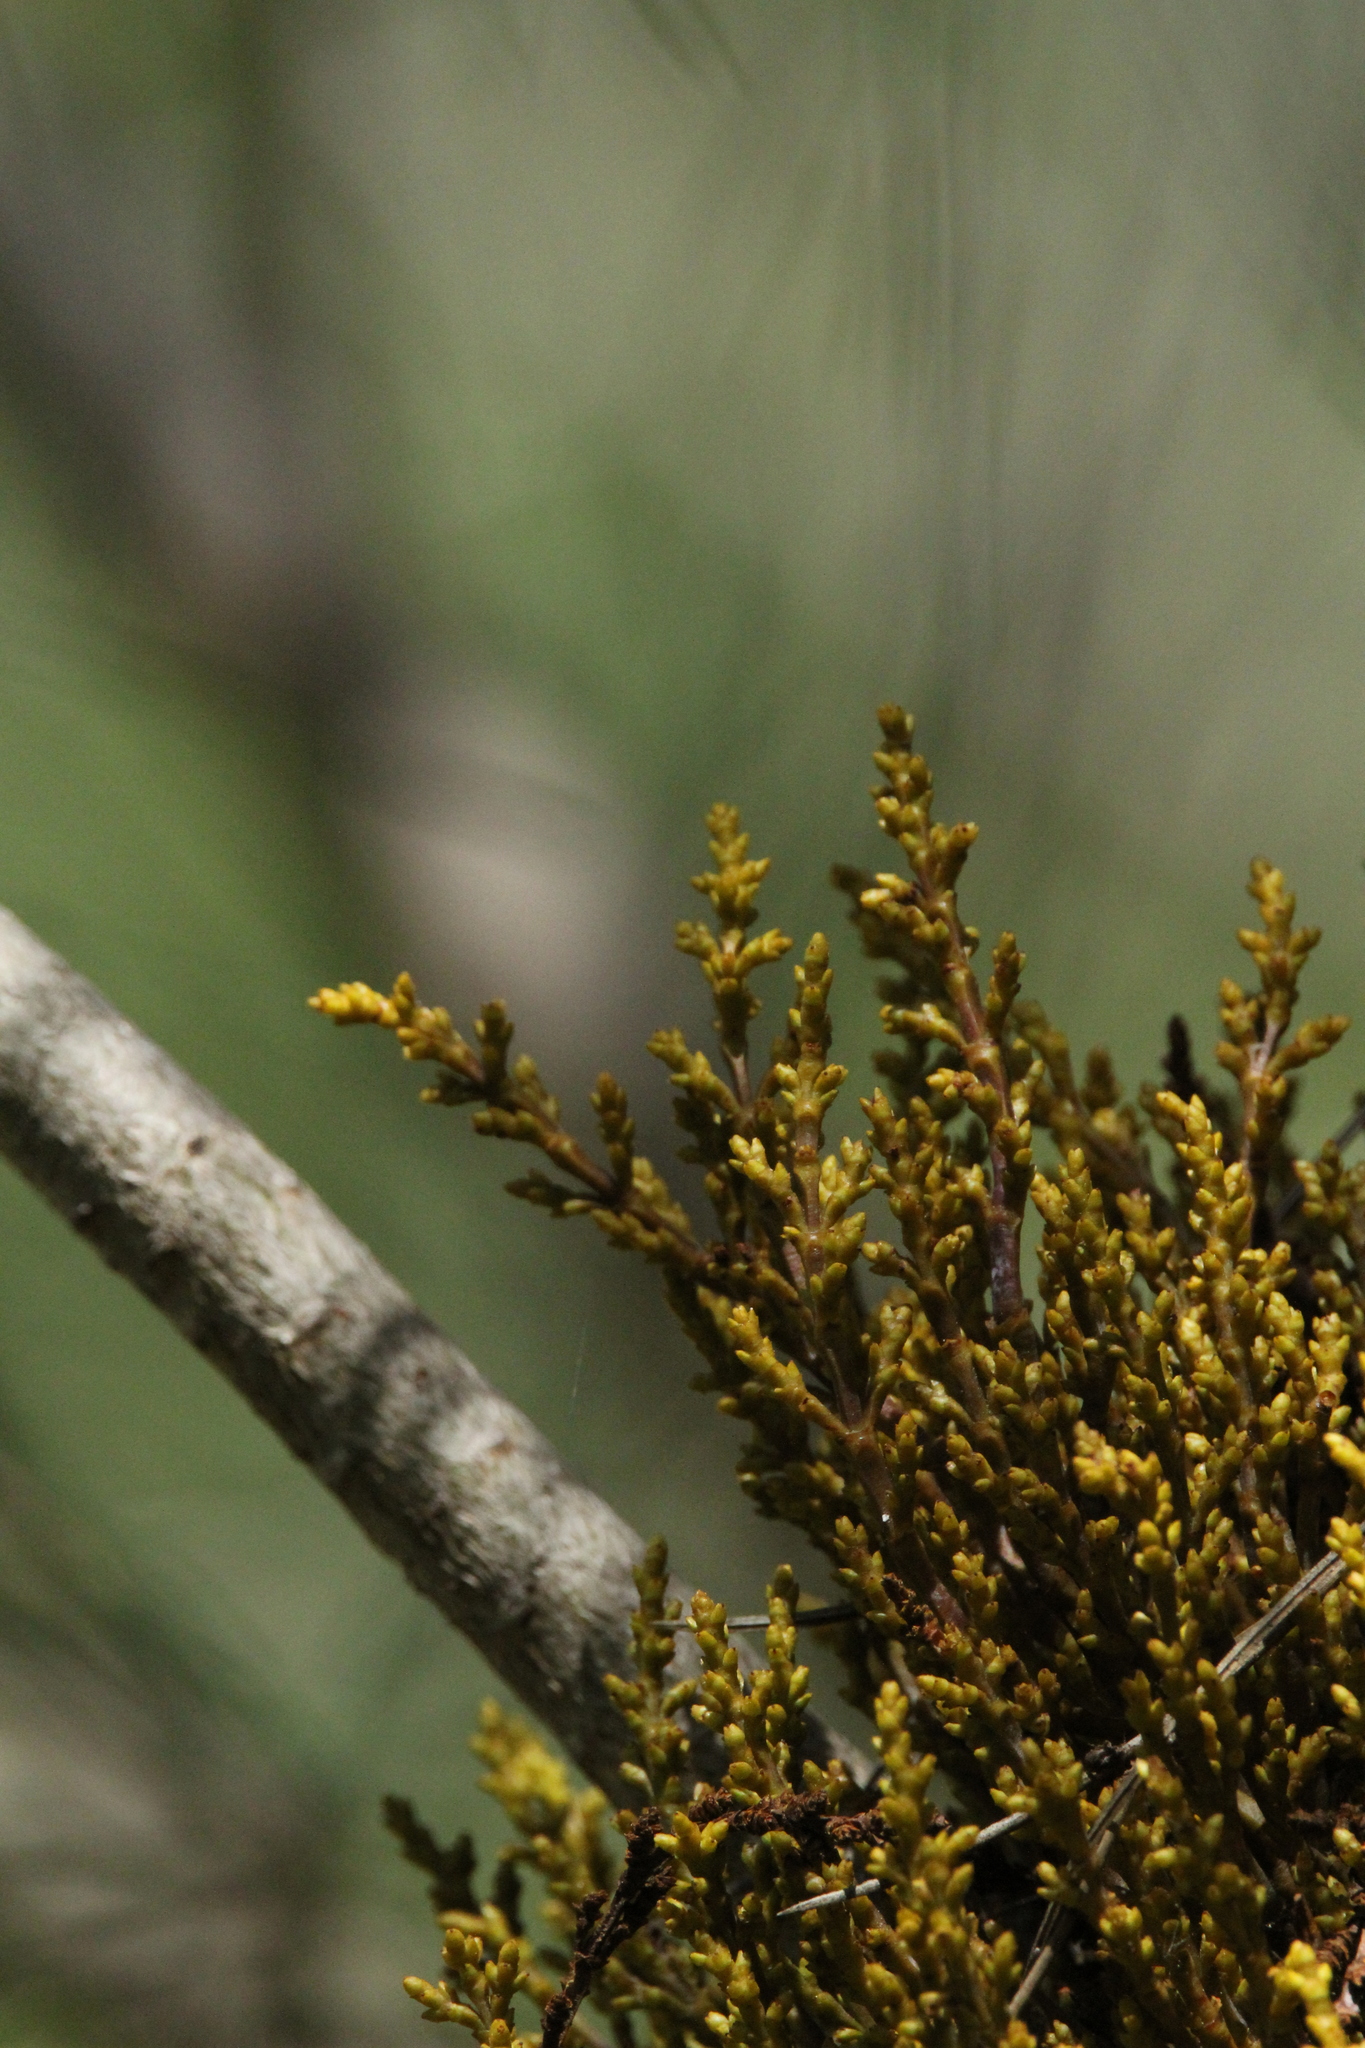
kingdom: Plantae
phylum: Tracheophyta
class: Magnoliopsida
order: Santalales
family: Viscaceae
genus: Arceuthobium
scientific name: Arceuthobium campylopodum
